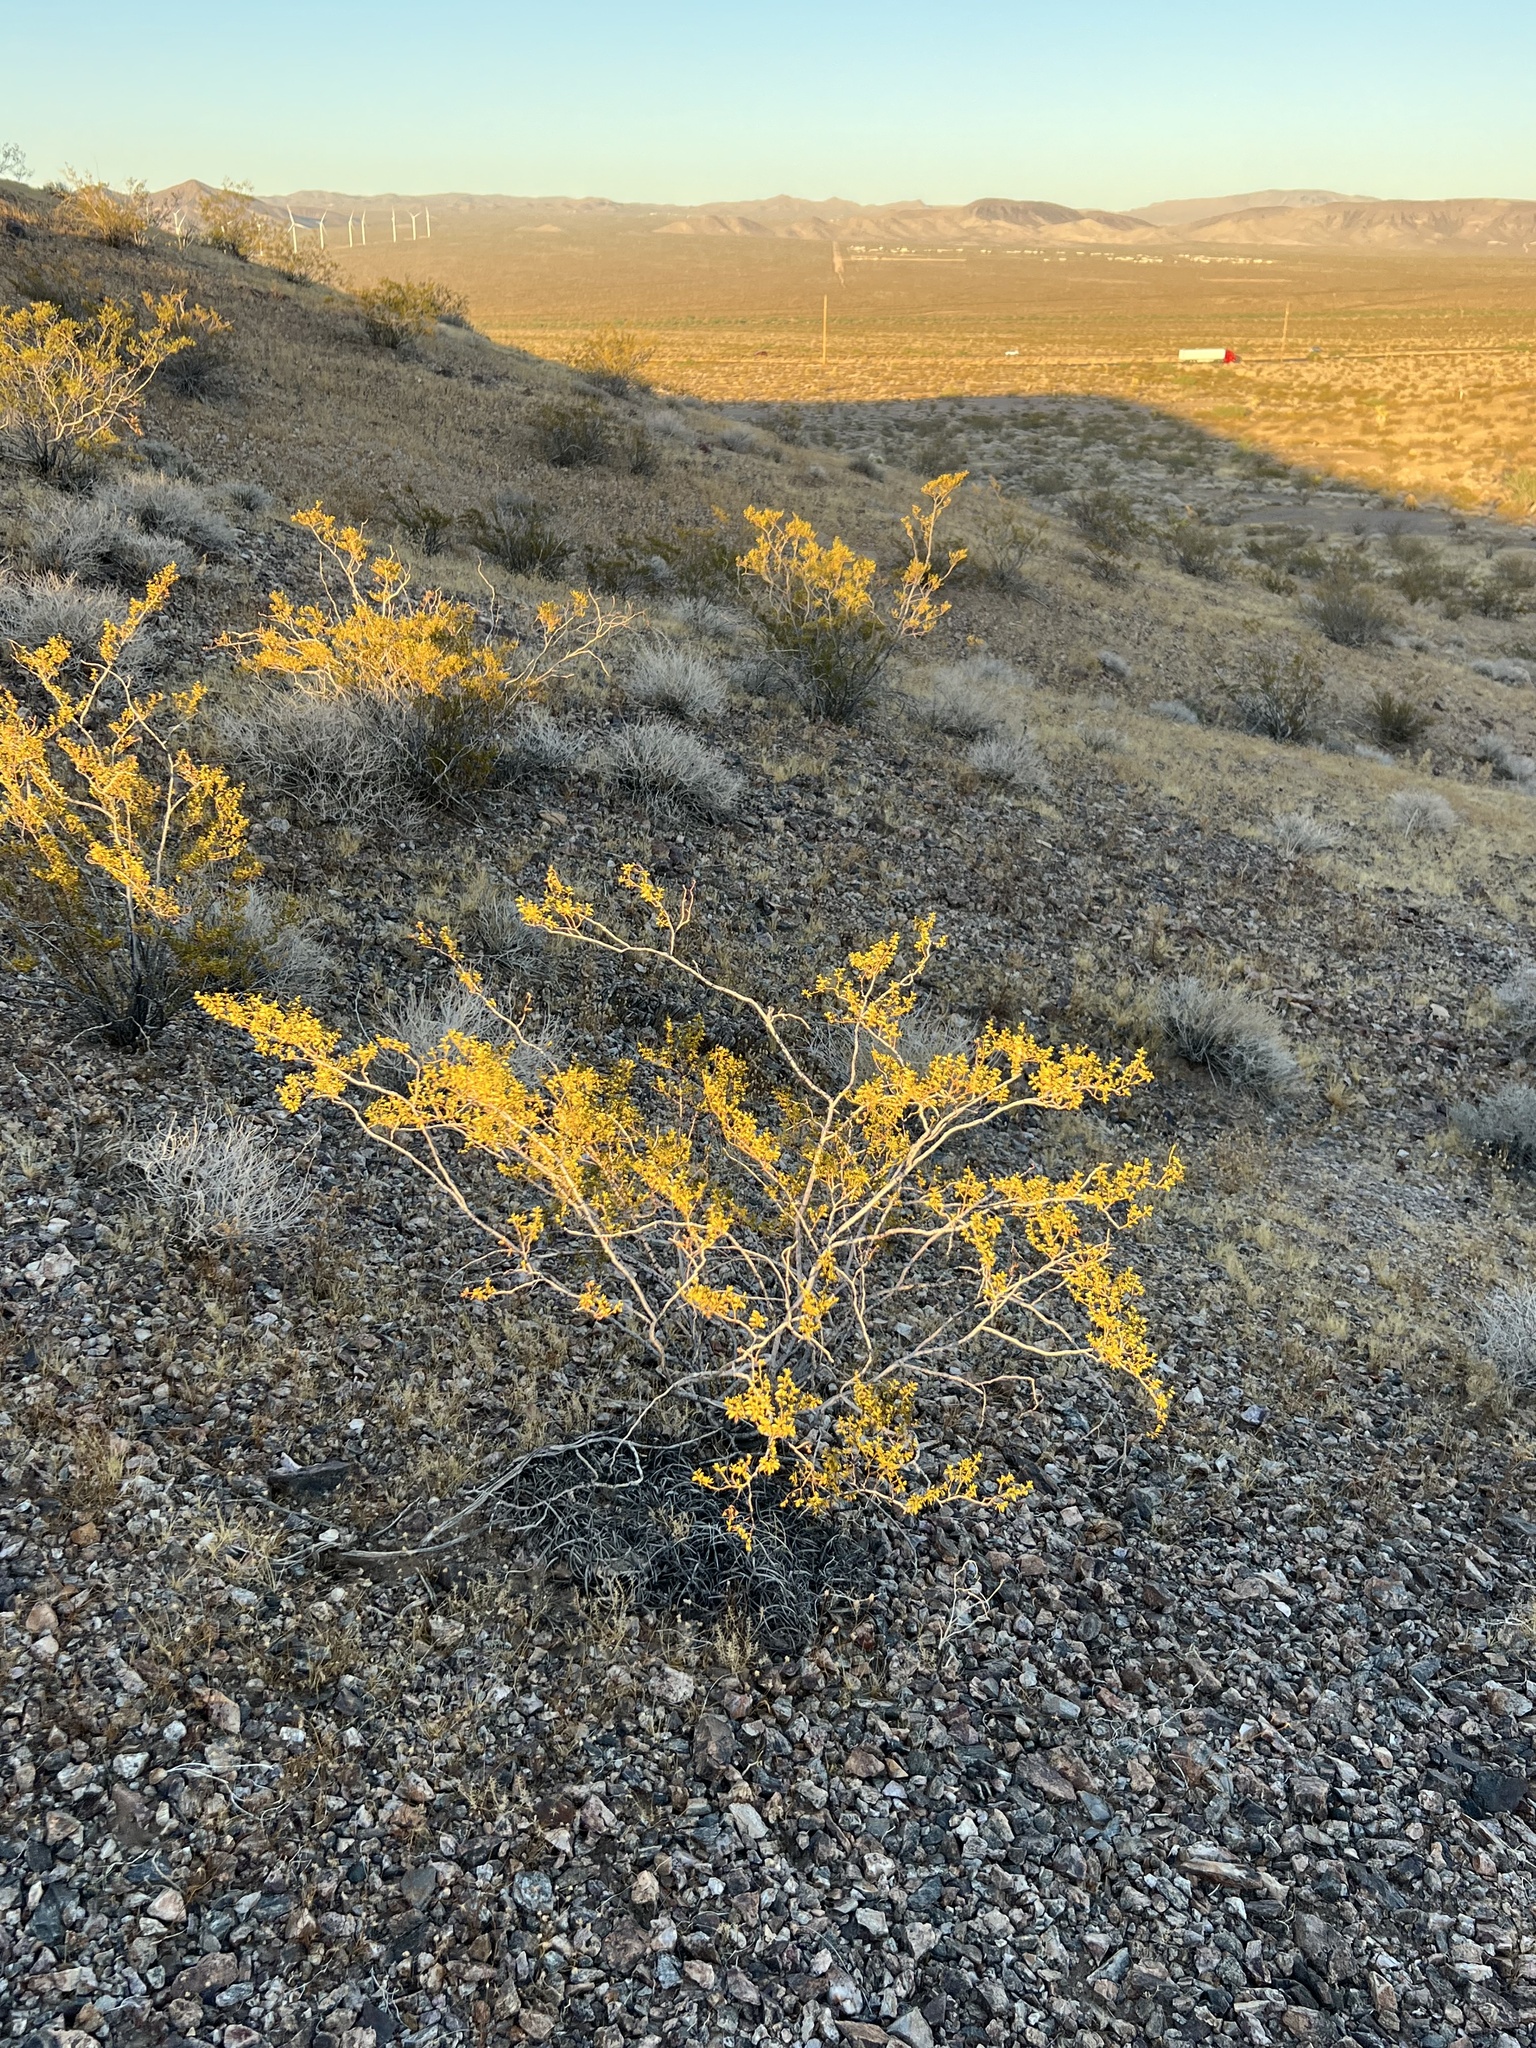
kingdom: Plantae
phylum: Tracheophyta
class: Magnoliopsida
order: Zygophyllales
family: Zygophyllaceae
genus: Larrea
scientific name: Larrea tridentata
